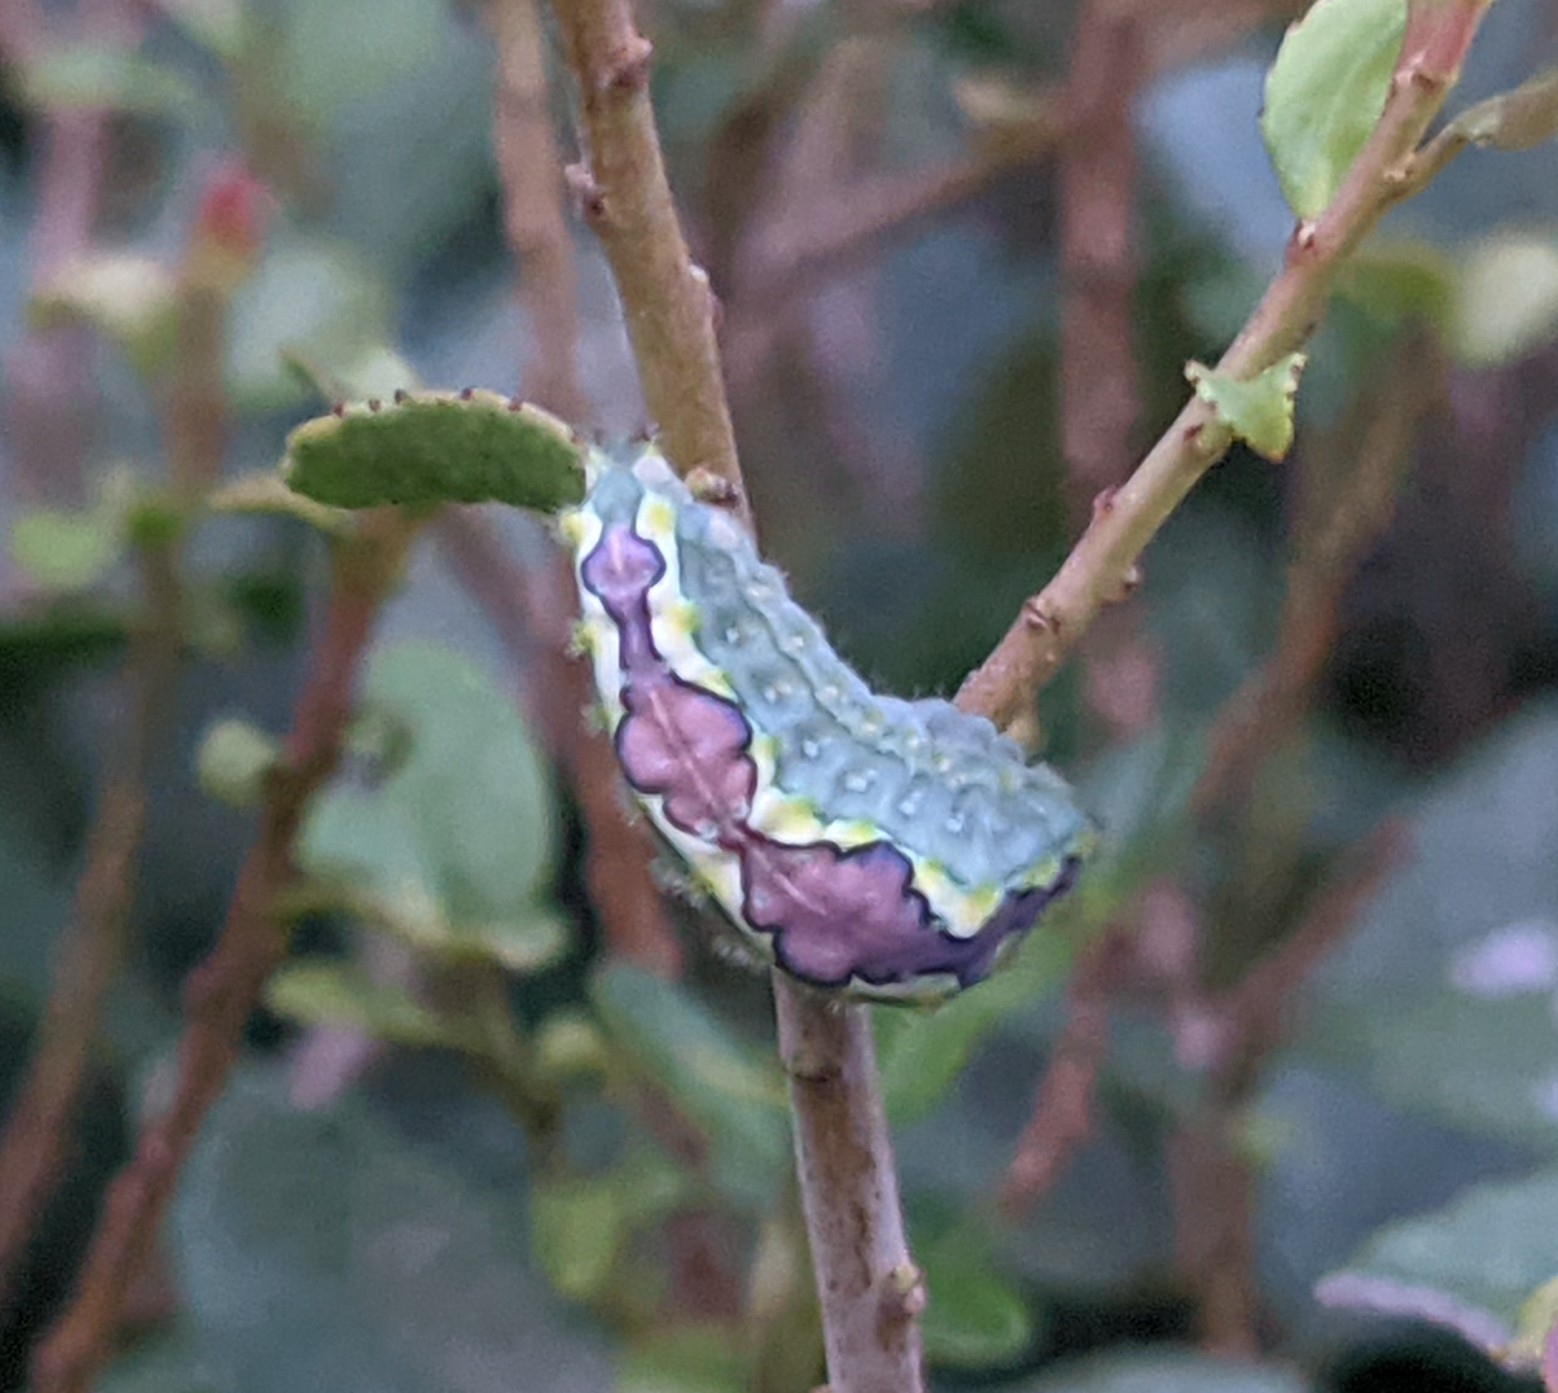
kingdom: Animalia
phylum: Arthropoda
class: Insecta
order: Lepidoptera
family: Limacodidae
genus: Adoneta
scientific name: Adoneta spinuloides
